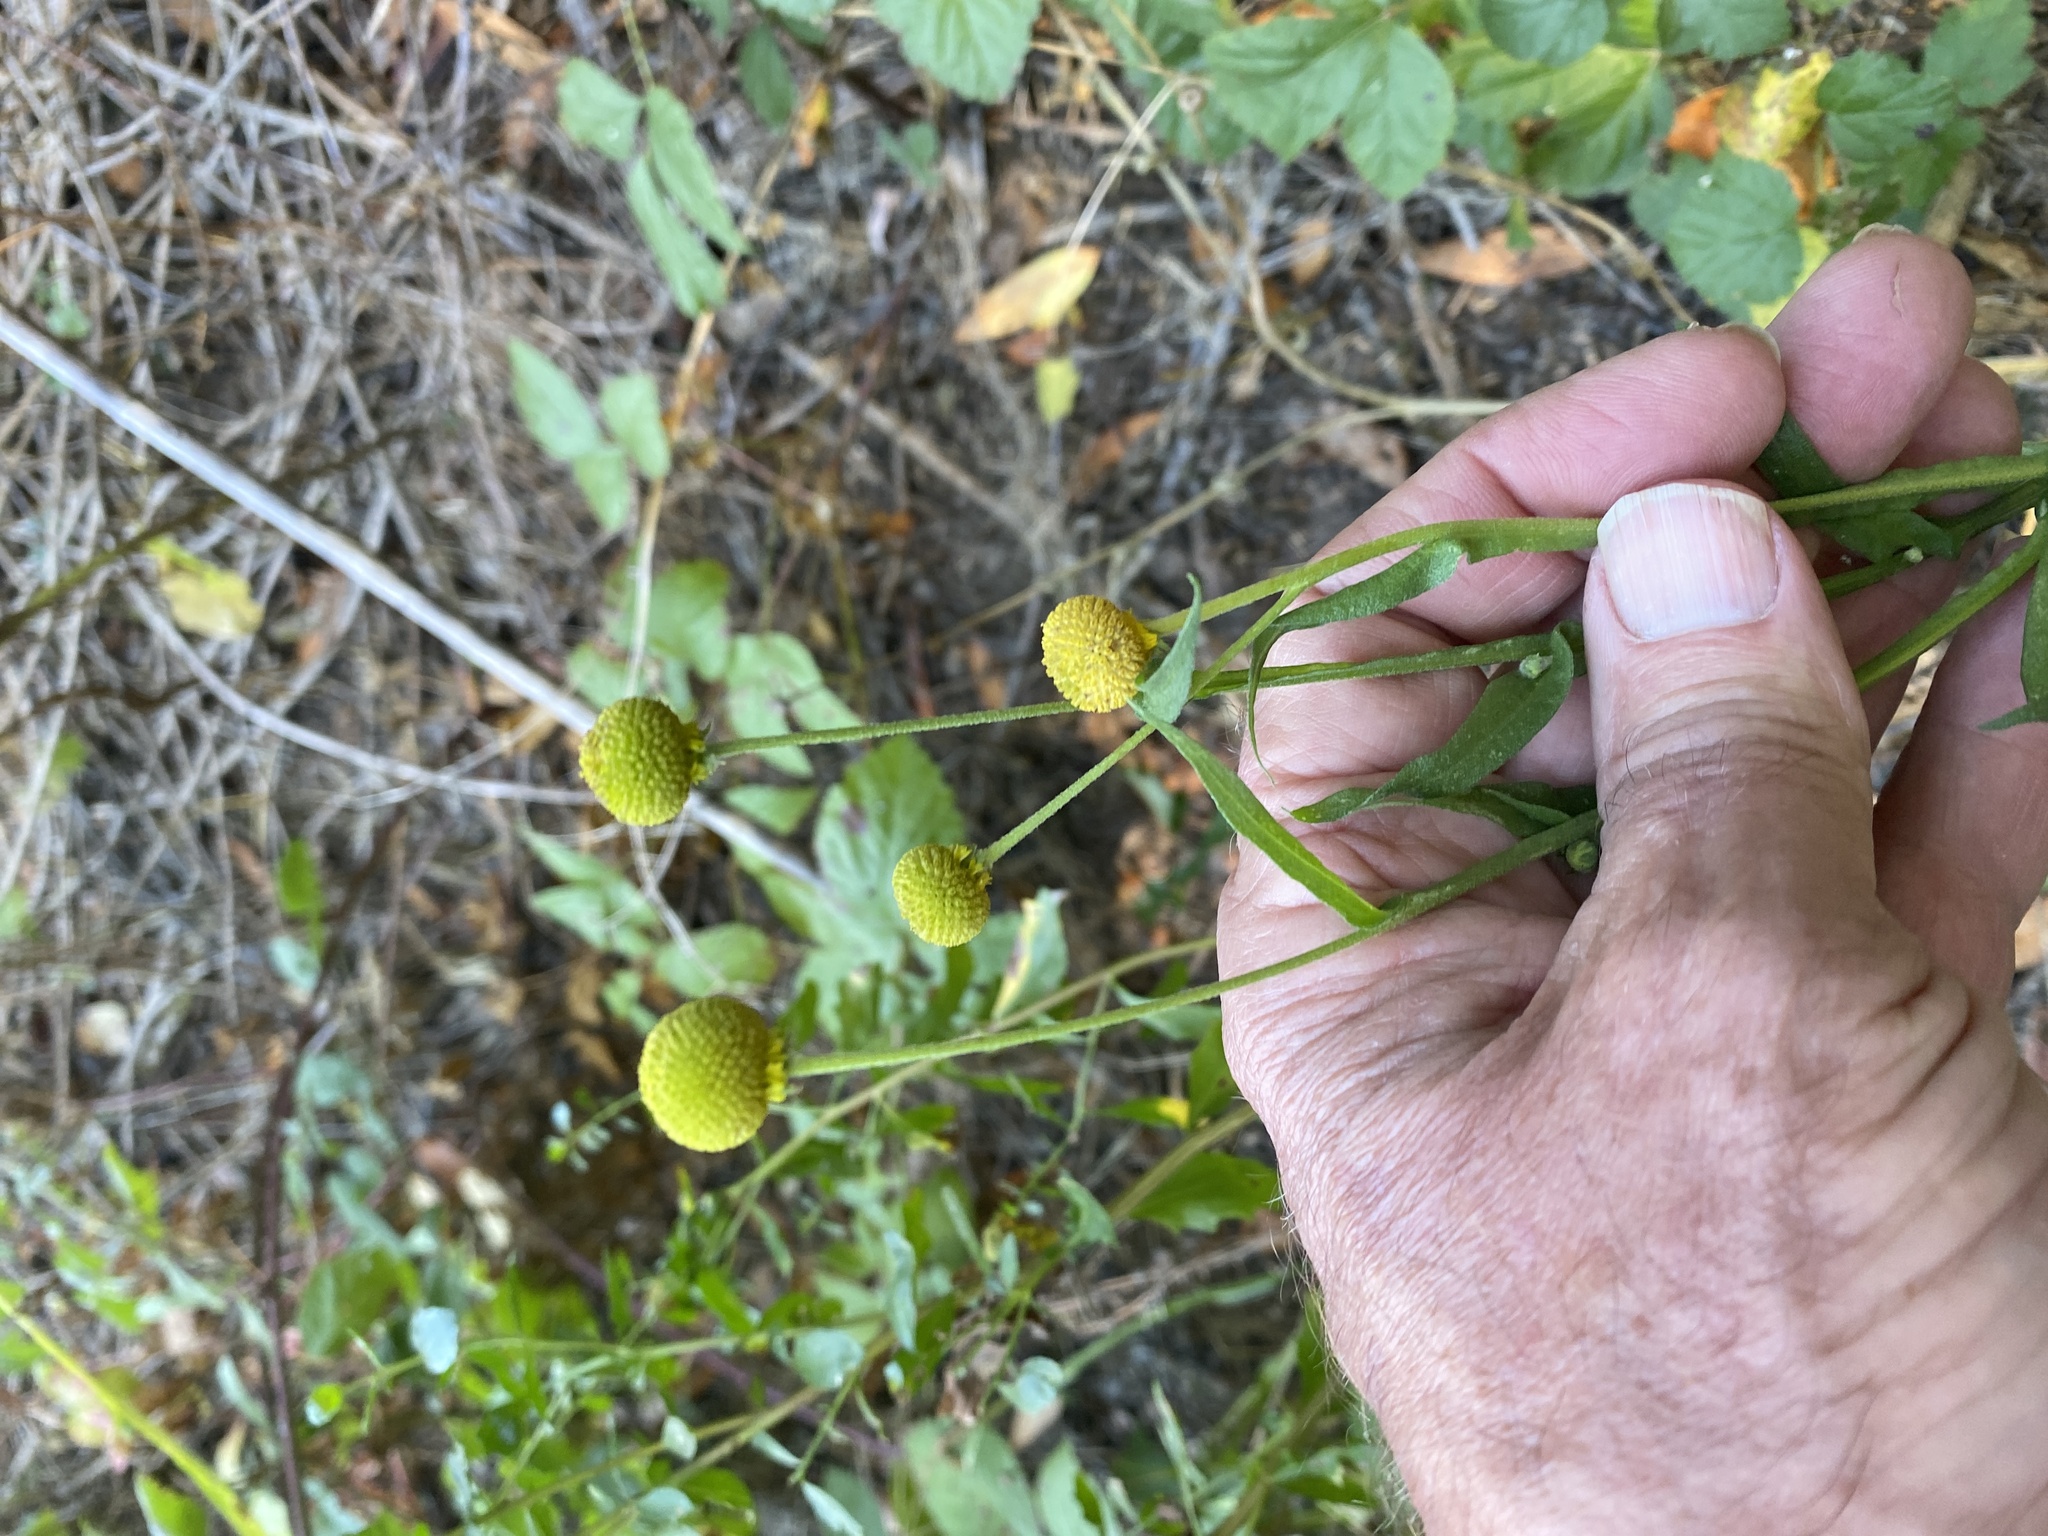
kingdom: Plantae
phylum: Tracheophyta
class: Magnoliopsida
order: Asterales
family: Asteraceae
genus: Helenium
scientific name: Helenium puberulum
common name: Sneezewort
